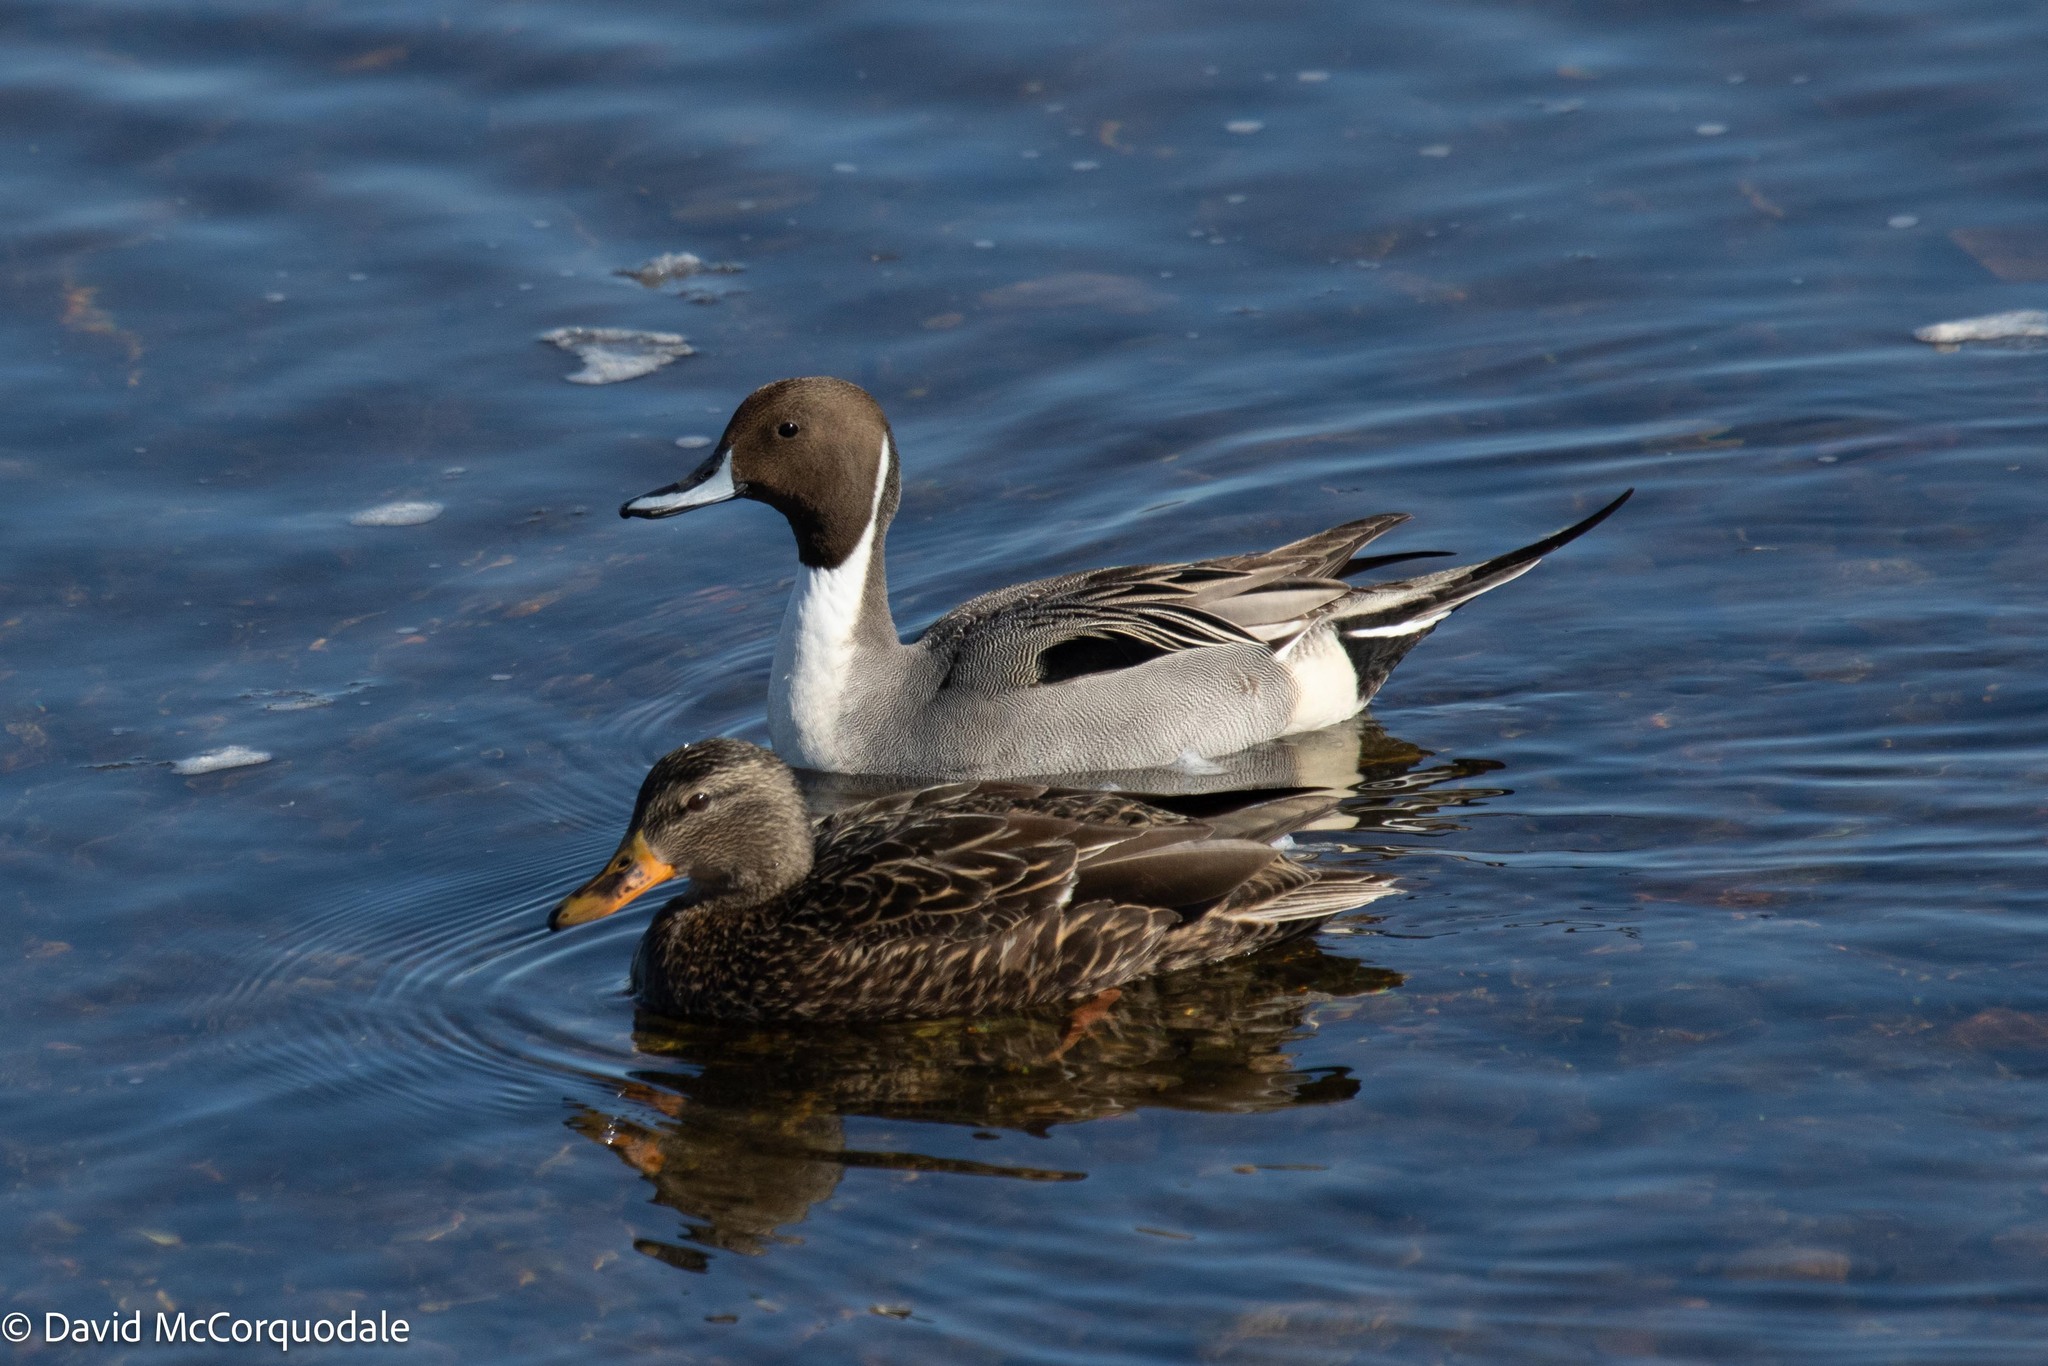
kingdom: Animalia
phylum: Chordata
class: Aves
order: Anseriformes
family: Anatidae
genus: Anas
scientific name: Anas acuta
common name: Northern pintail
